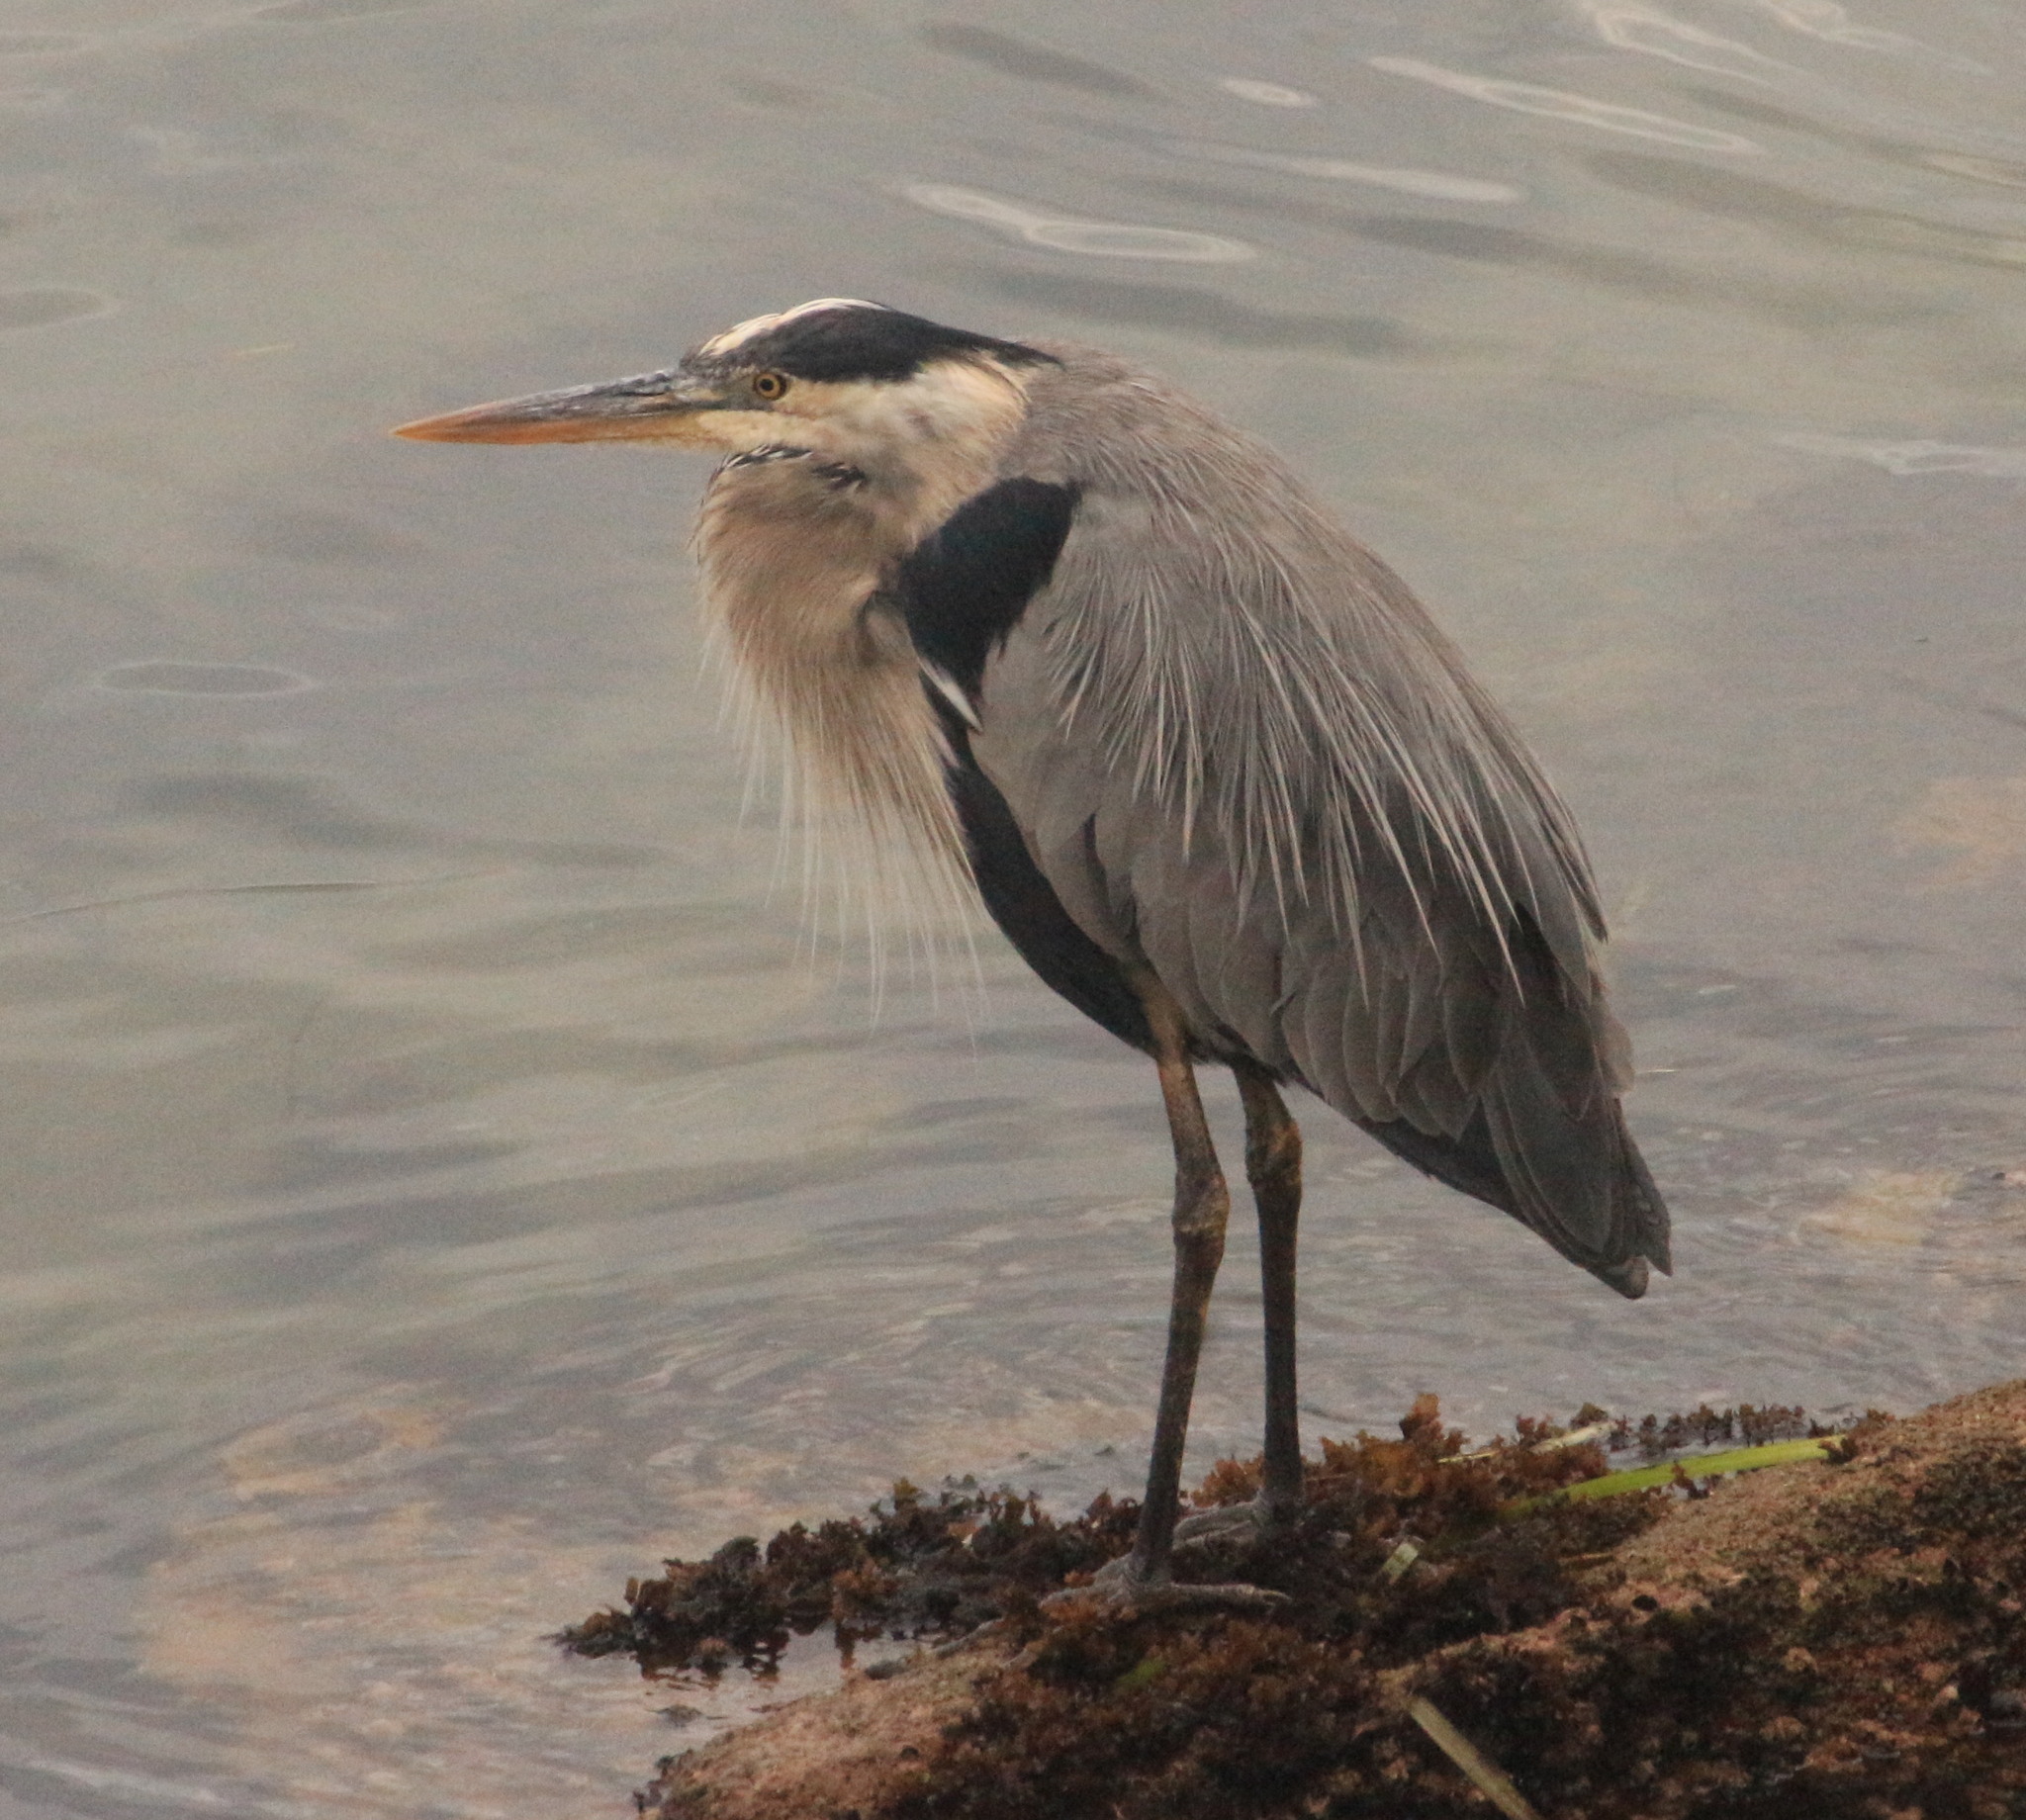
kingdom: Animalia
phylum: Chordata
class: Aves
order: Pelecaniformes
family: Ardeidae
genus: Ardea
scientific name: Ardea herodias
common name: Great blue heron
